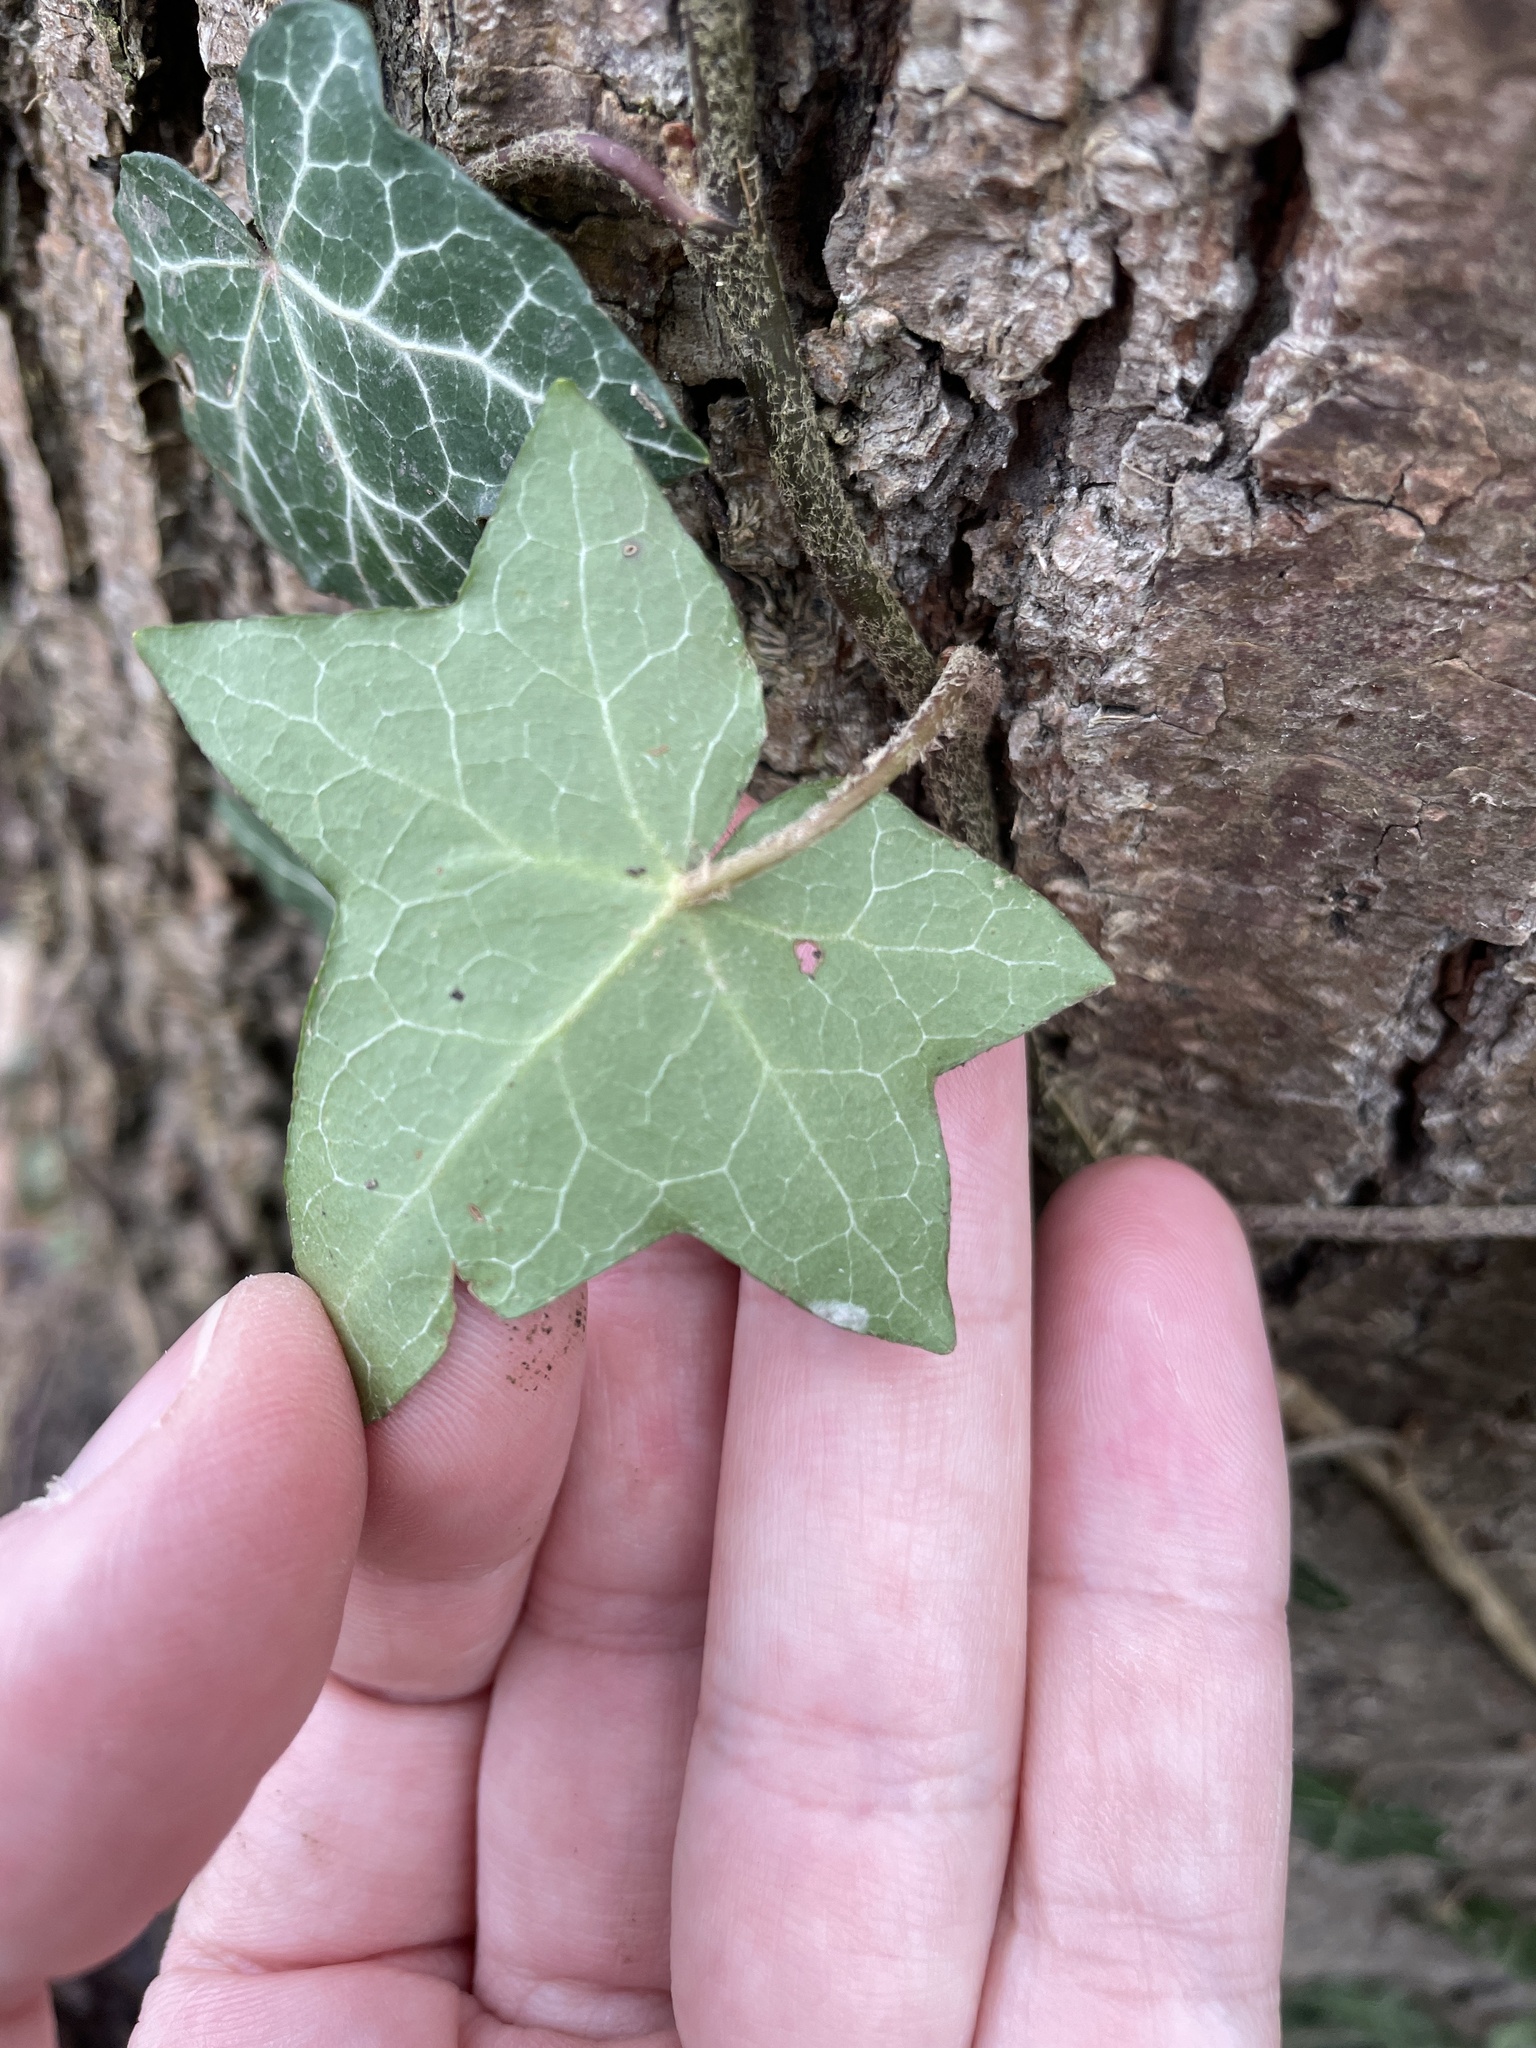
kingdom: Plantae
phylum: Tracheophyta
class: Magnoliopsida
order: Apiales
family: Araliaceae
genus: Hedera
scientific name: Hedera helix
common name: Ivy
